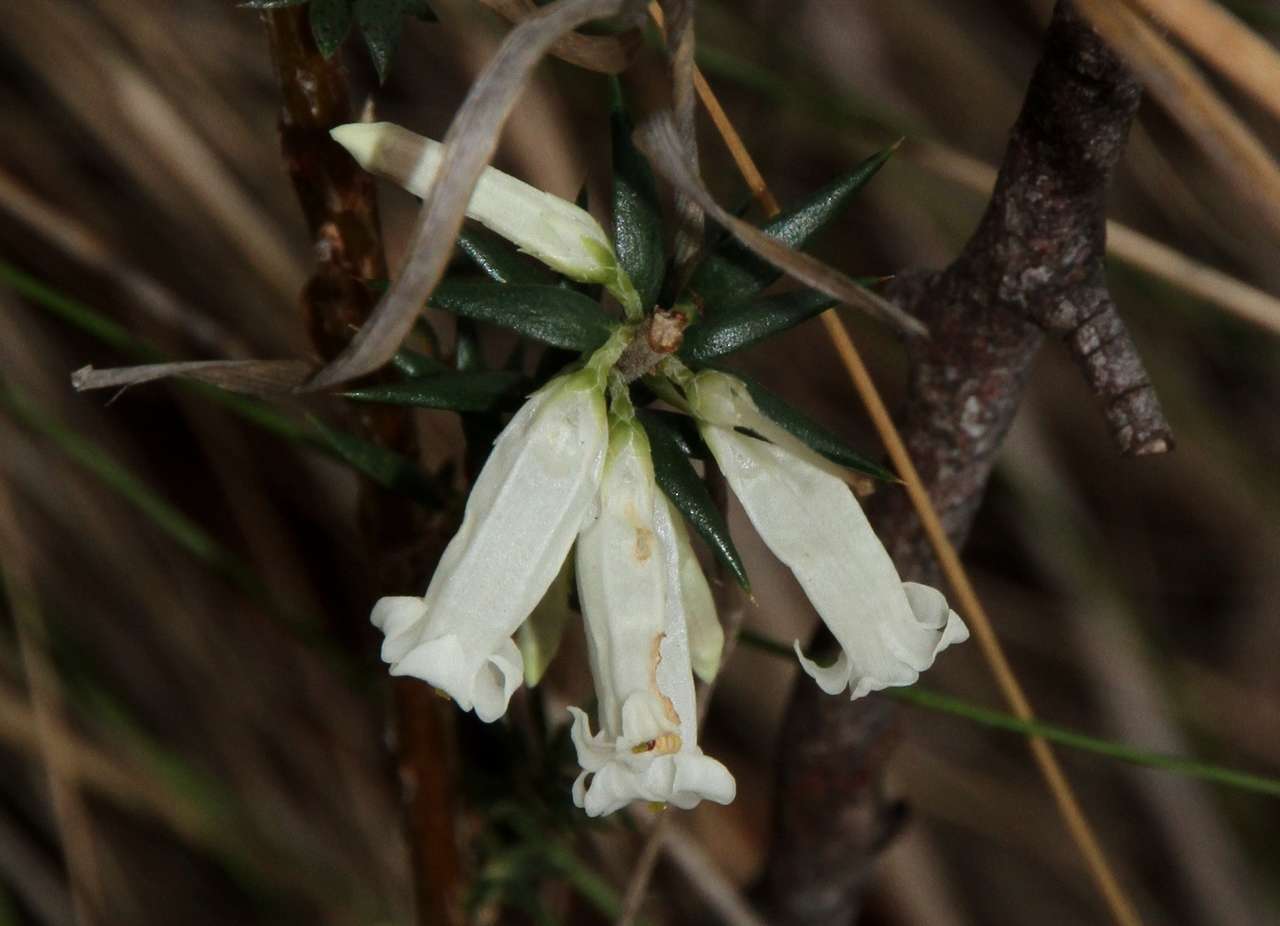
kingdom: Plantae
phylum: Tracheophyta
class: Magnoliopsida
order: Ericales
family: Ericaceae
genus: Epacris
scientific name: Epacris impressa
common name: Common-heath
